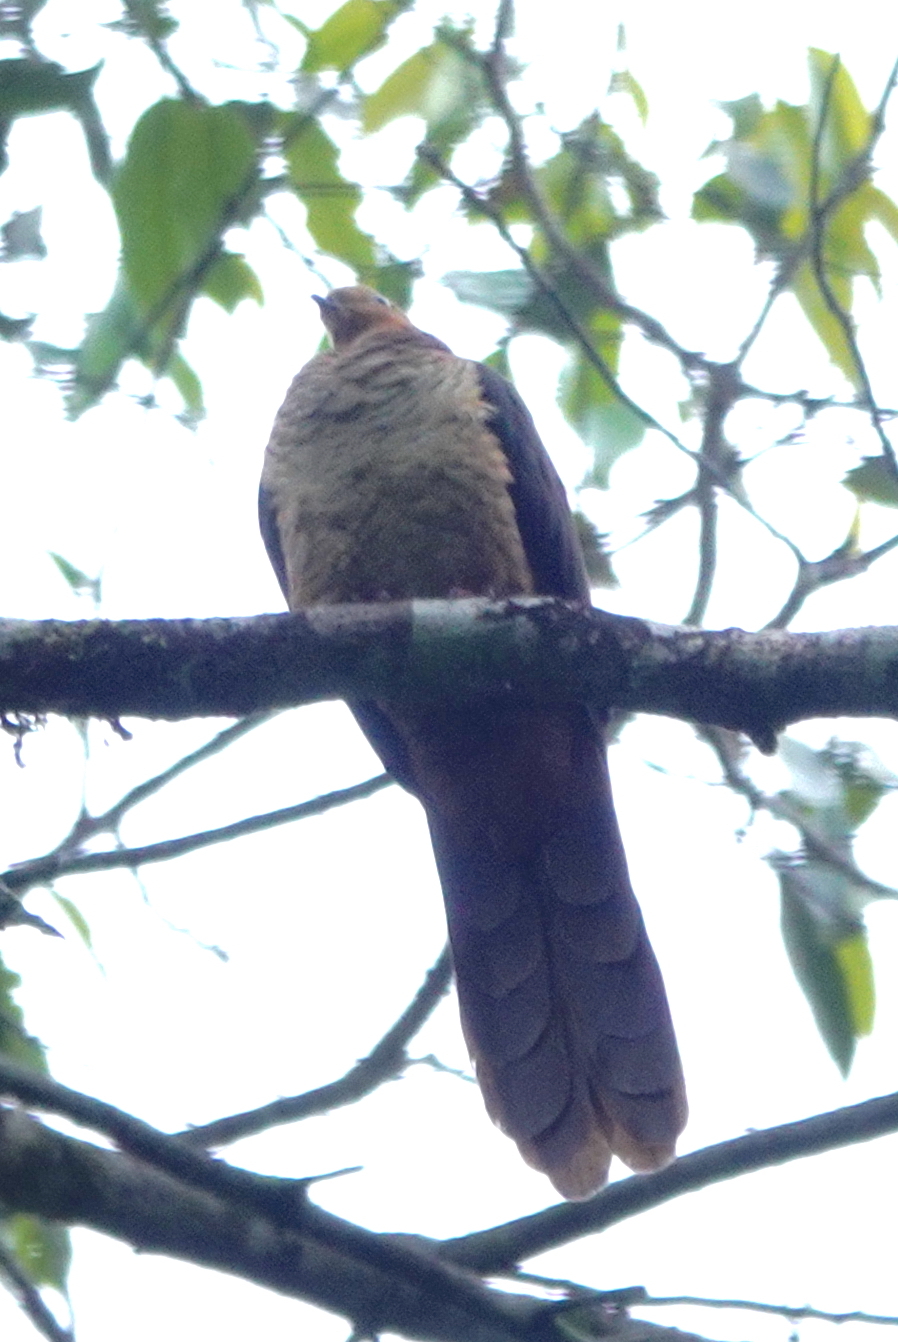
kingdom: Animalia
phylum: Chordata
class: Aves
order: Columbiformes
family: Columbidae
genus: Macropygia
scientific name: Macropygia amboinensis
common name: Amboyna cuckoo-dove
